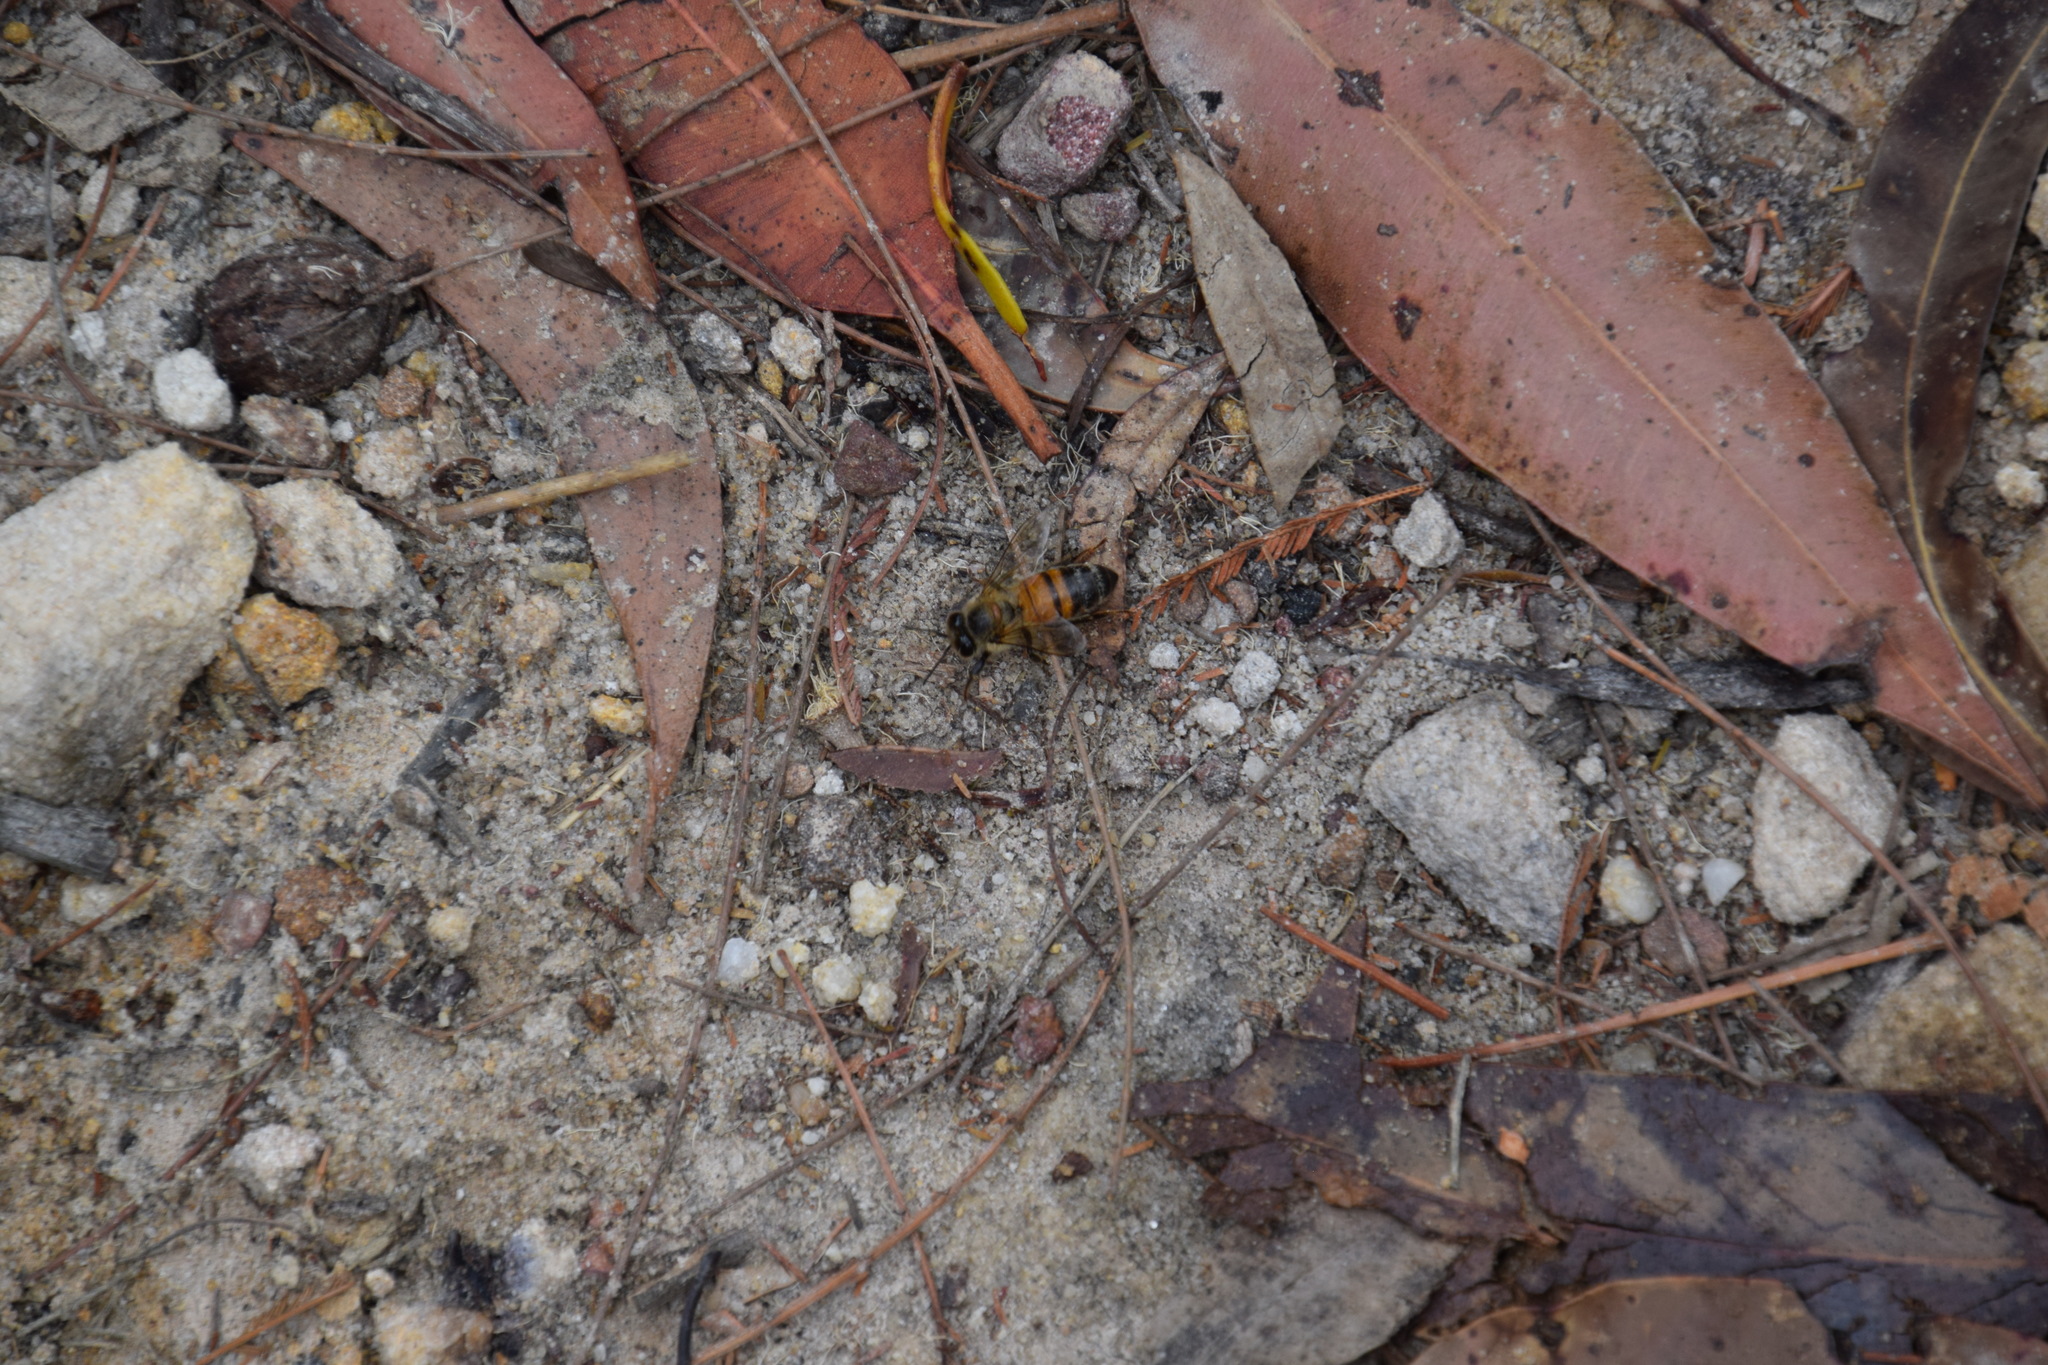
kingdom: Animalia
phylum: Arthropoda
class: Insecta
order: Hymenoptera
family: Apidae
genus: Apis
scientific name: Apis mellifera
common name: Honey bee
